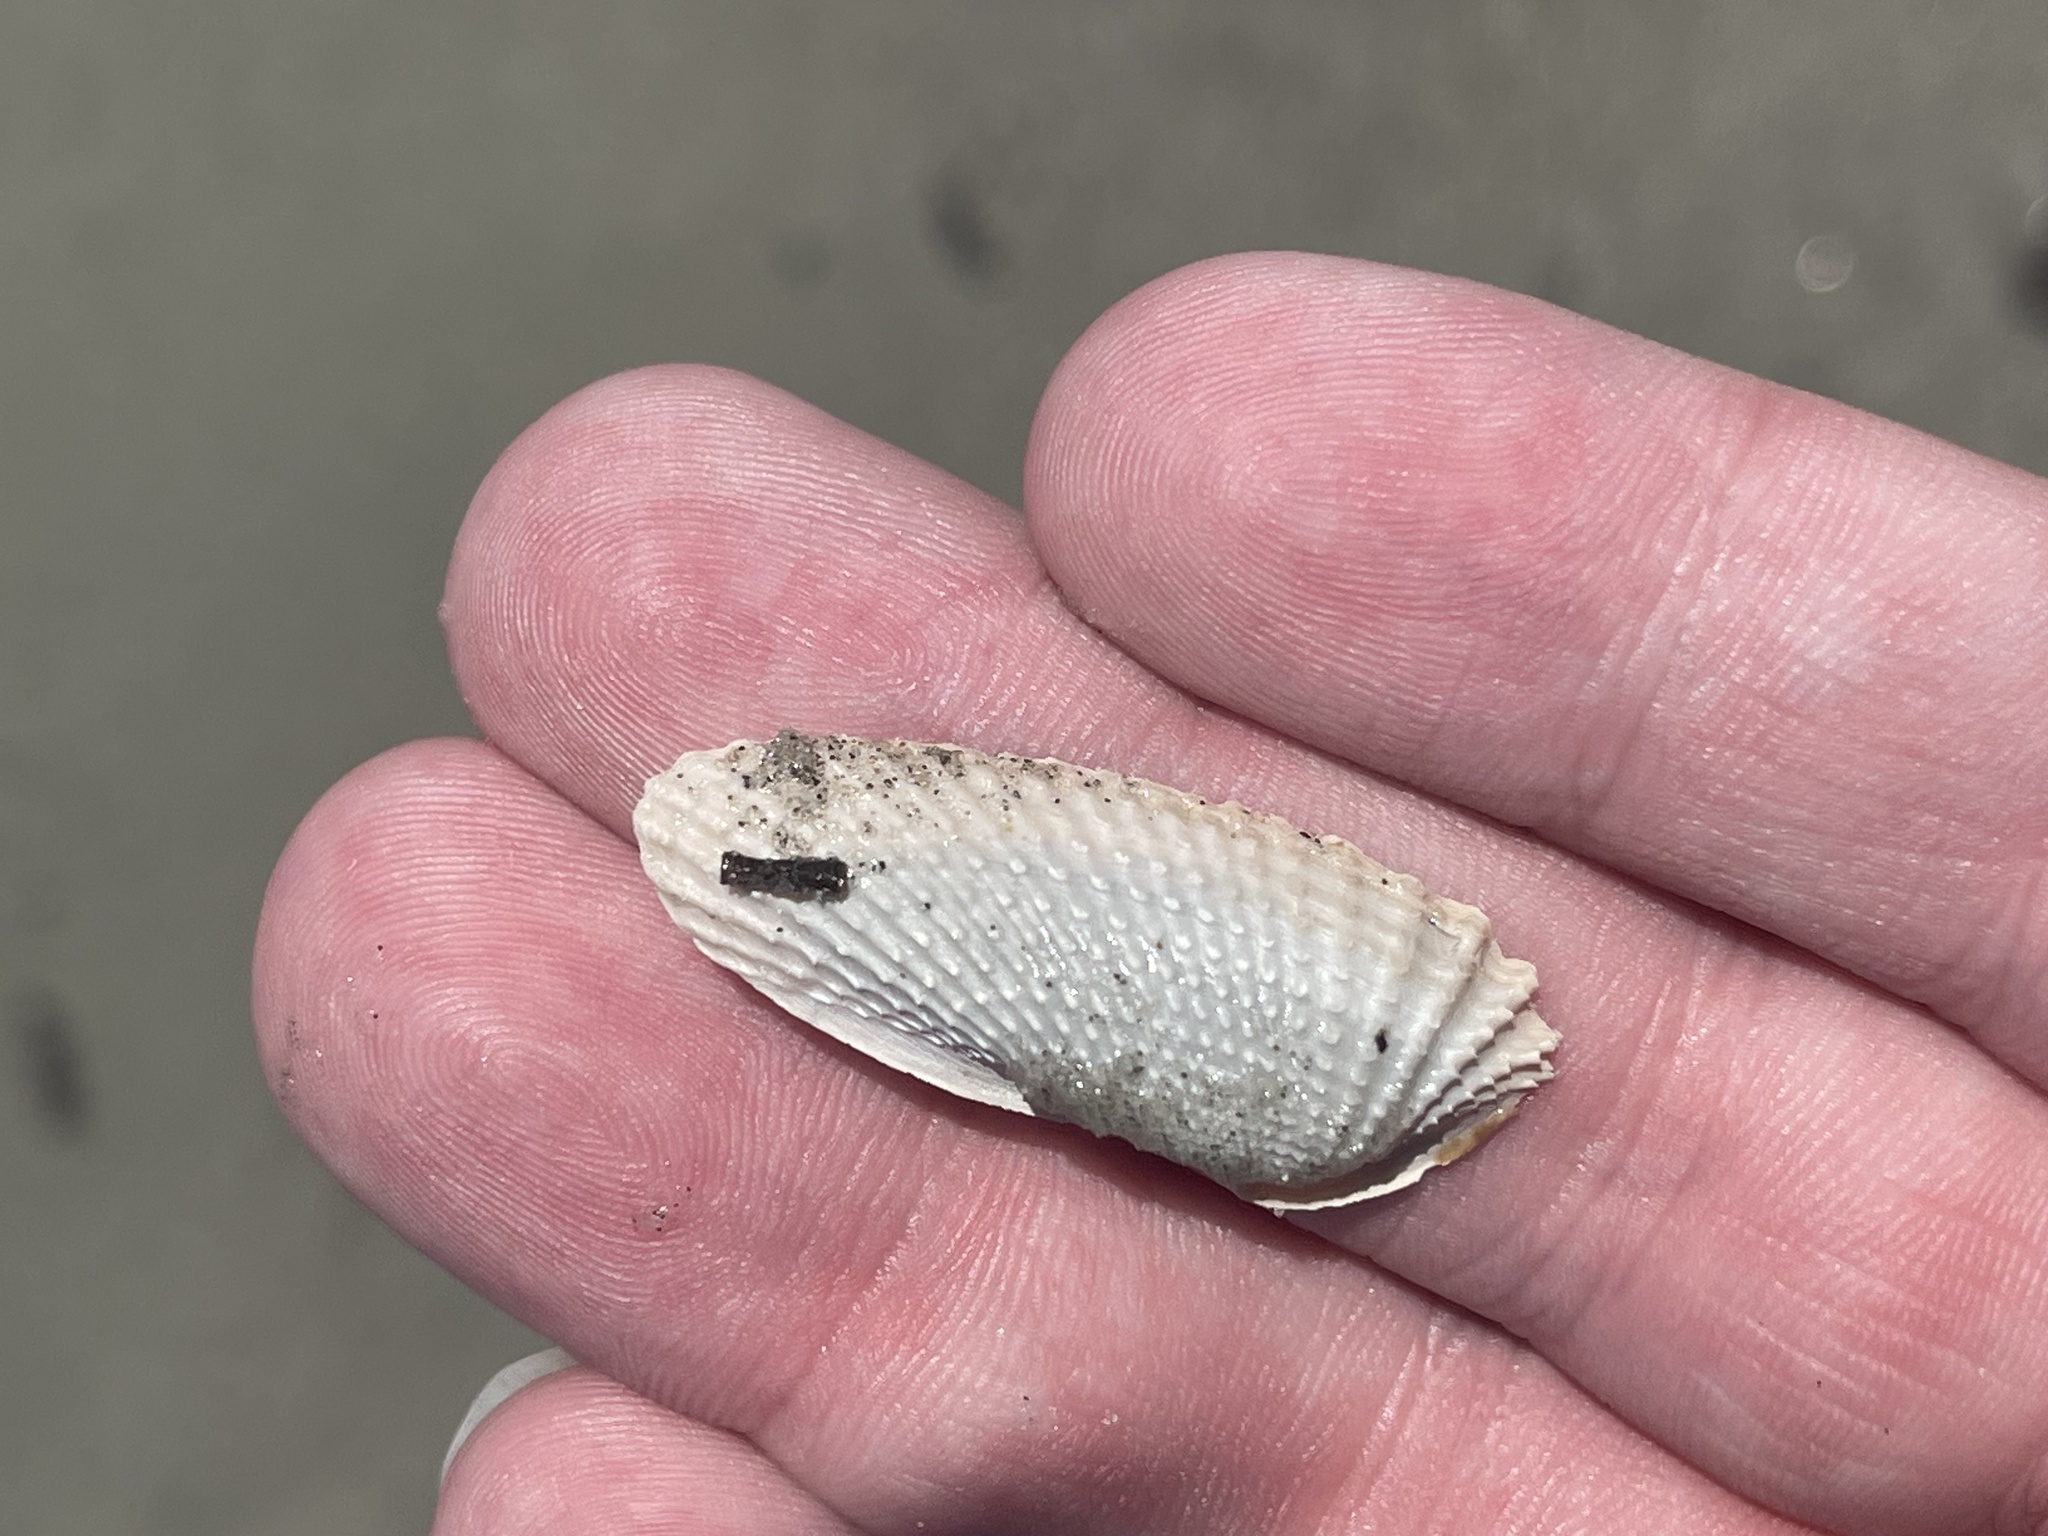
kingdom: Animalia
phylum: Mollusca
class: Bivalvia
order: Myida
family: Pholadidae
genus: Cyrtopleura
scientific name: Cyrtopleura costata
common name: Angel wing
